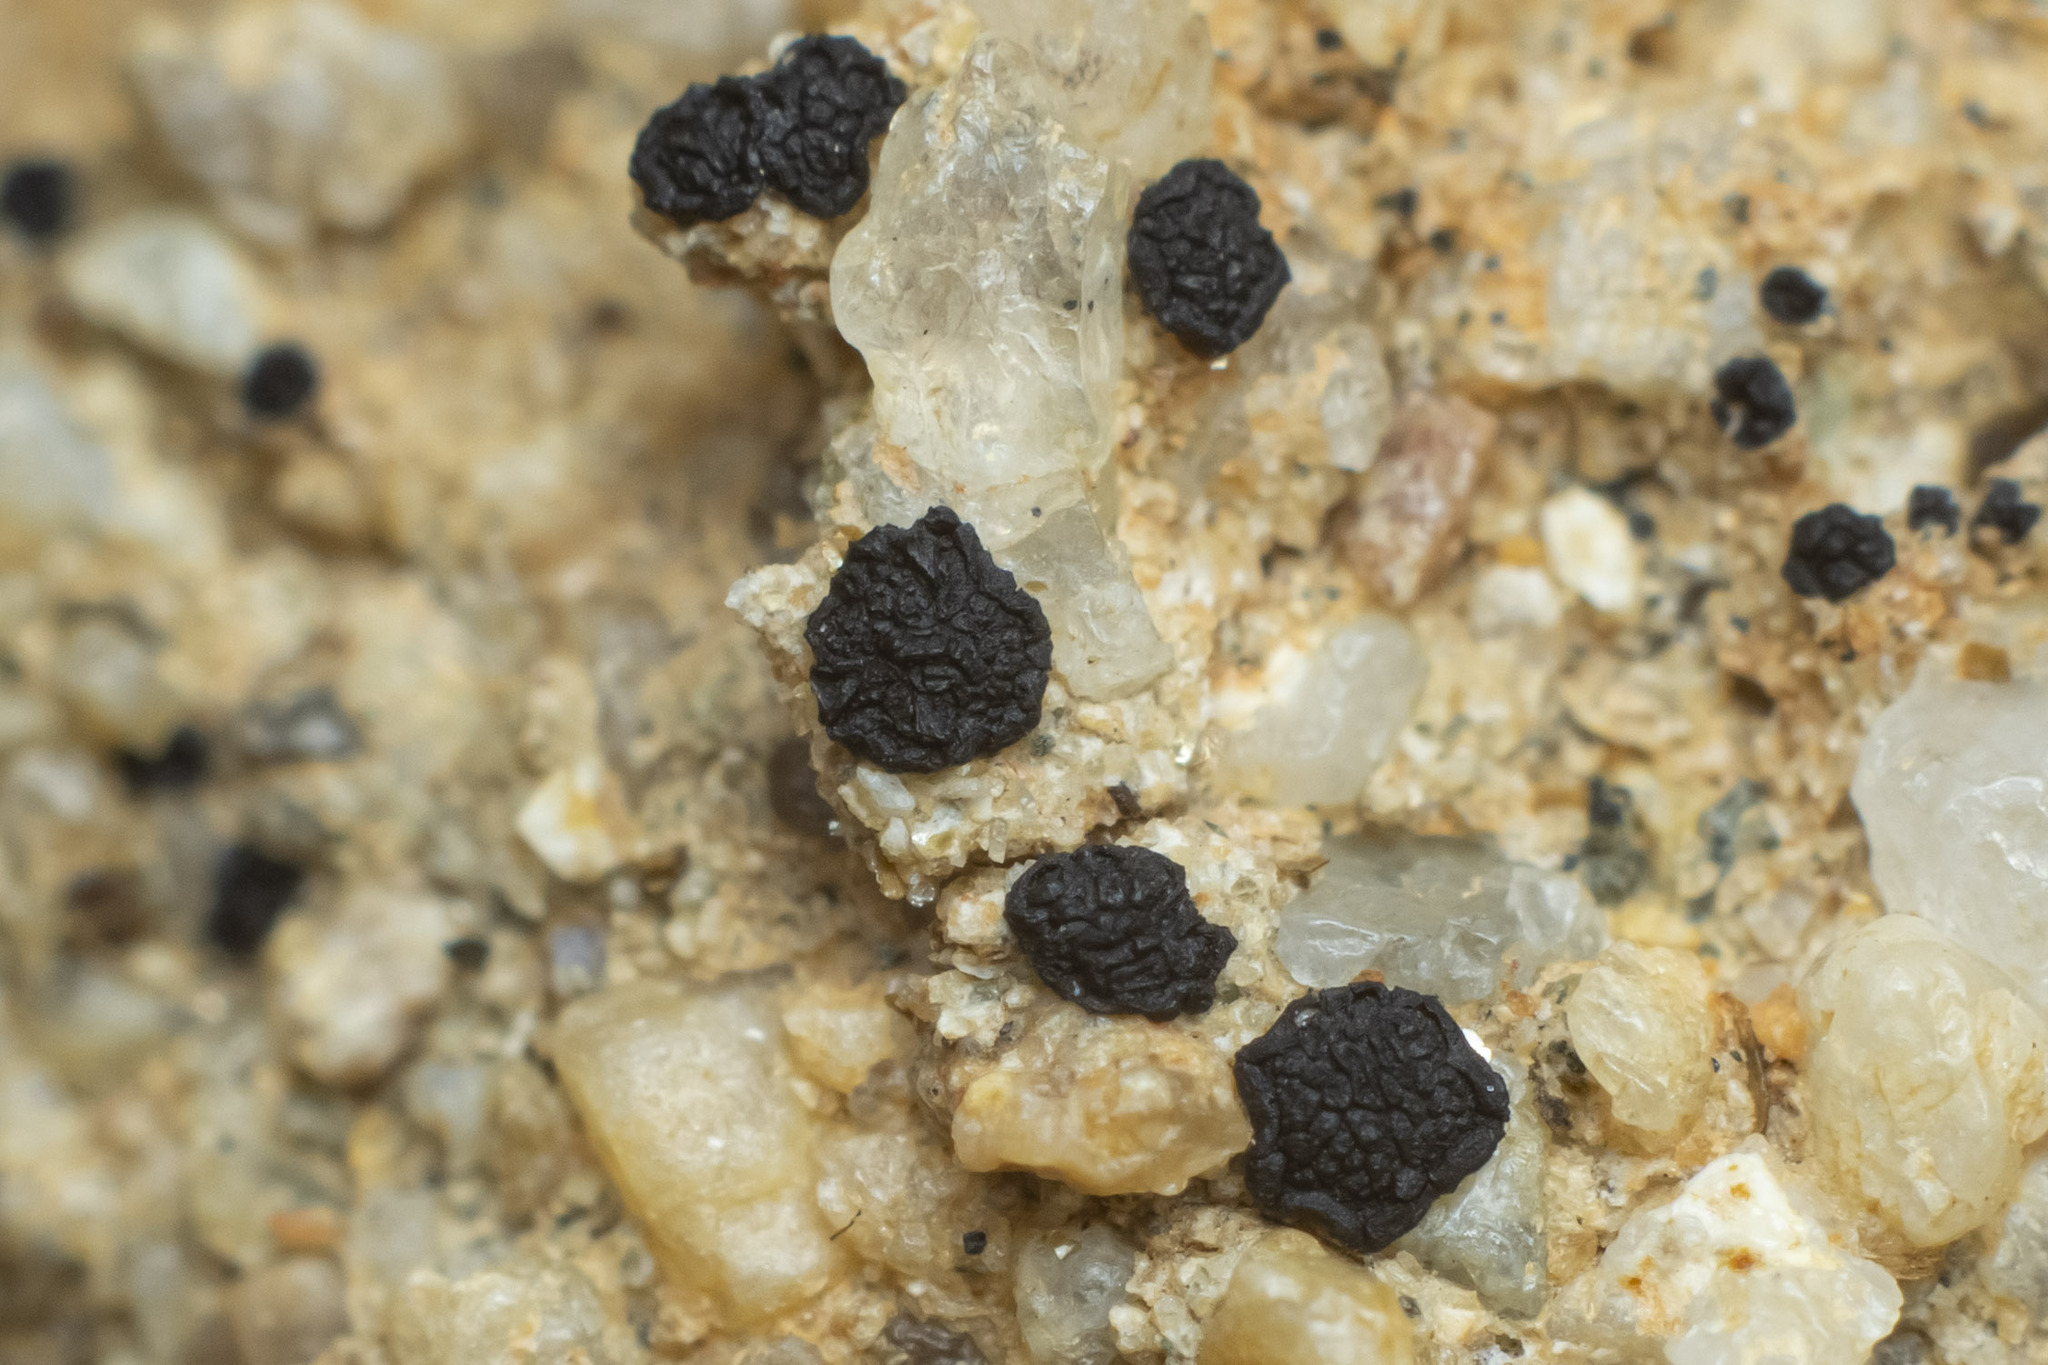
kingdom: Fungi
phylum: Ascomycota
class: Lecanoromycetes
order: Acarosporales
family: Acarosporaceae
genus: Acarospora
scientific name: Acarospora privigna
